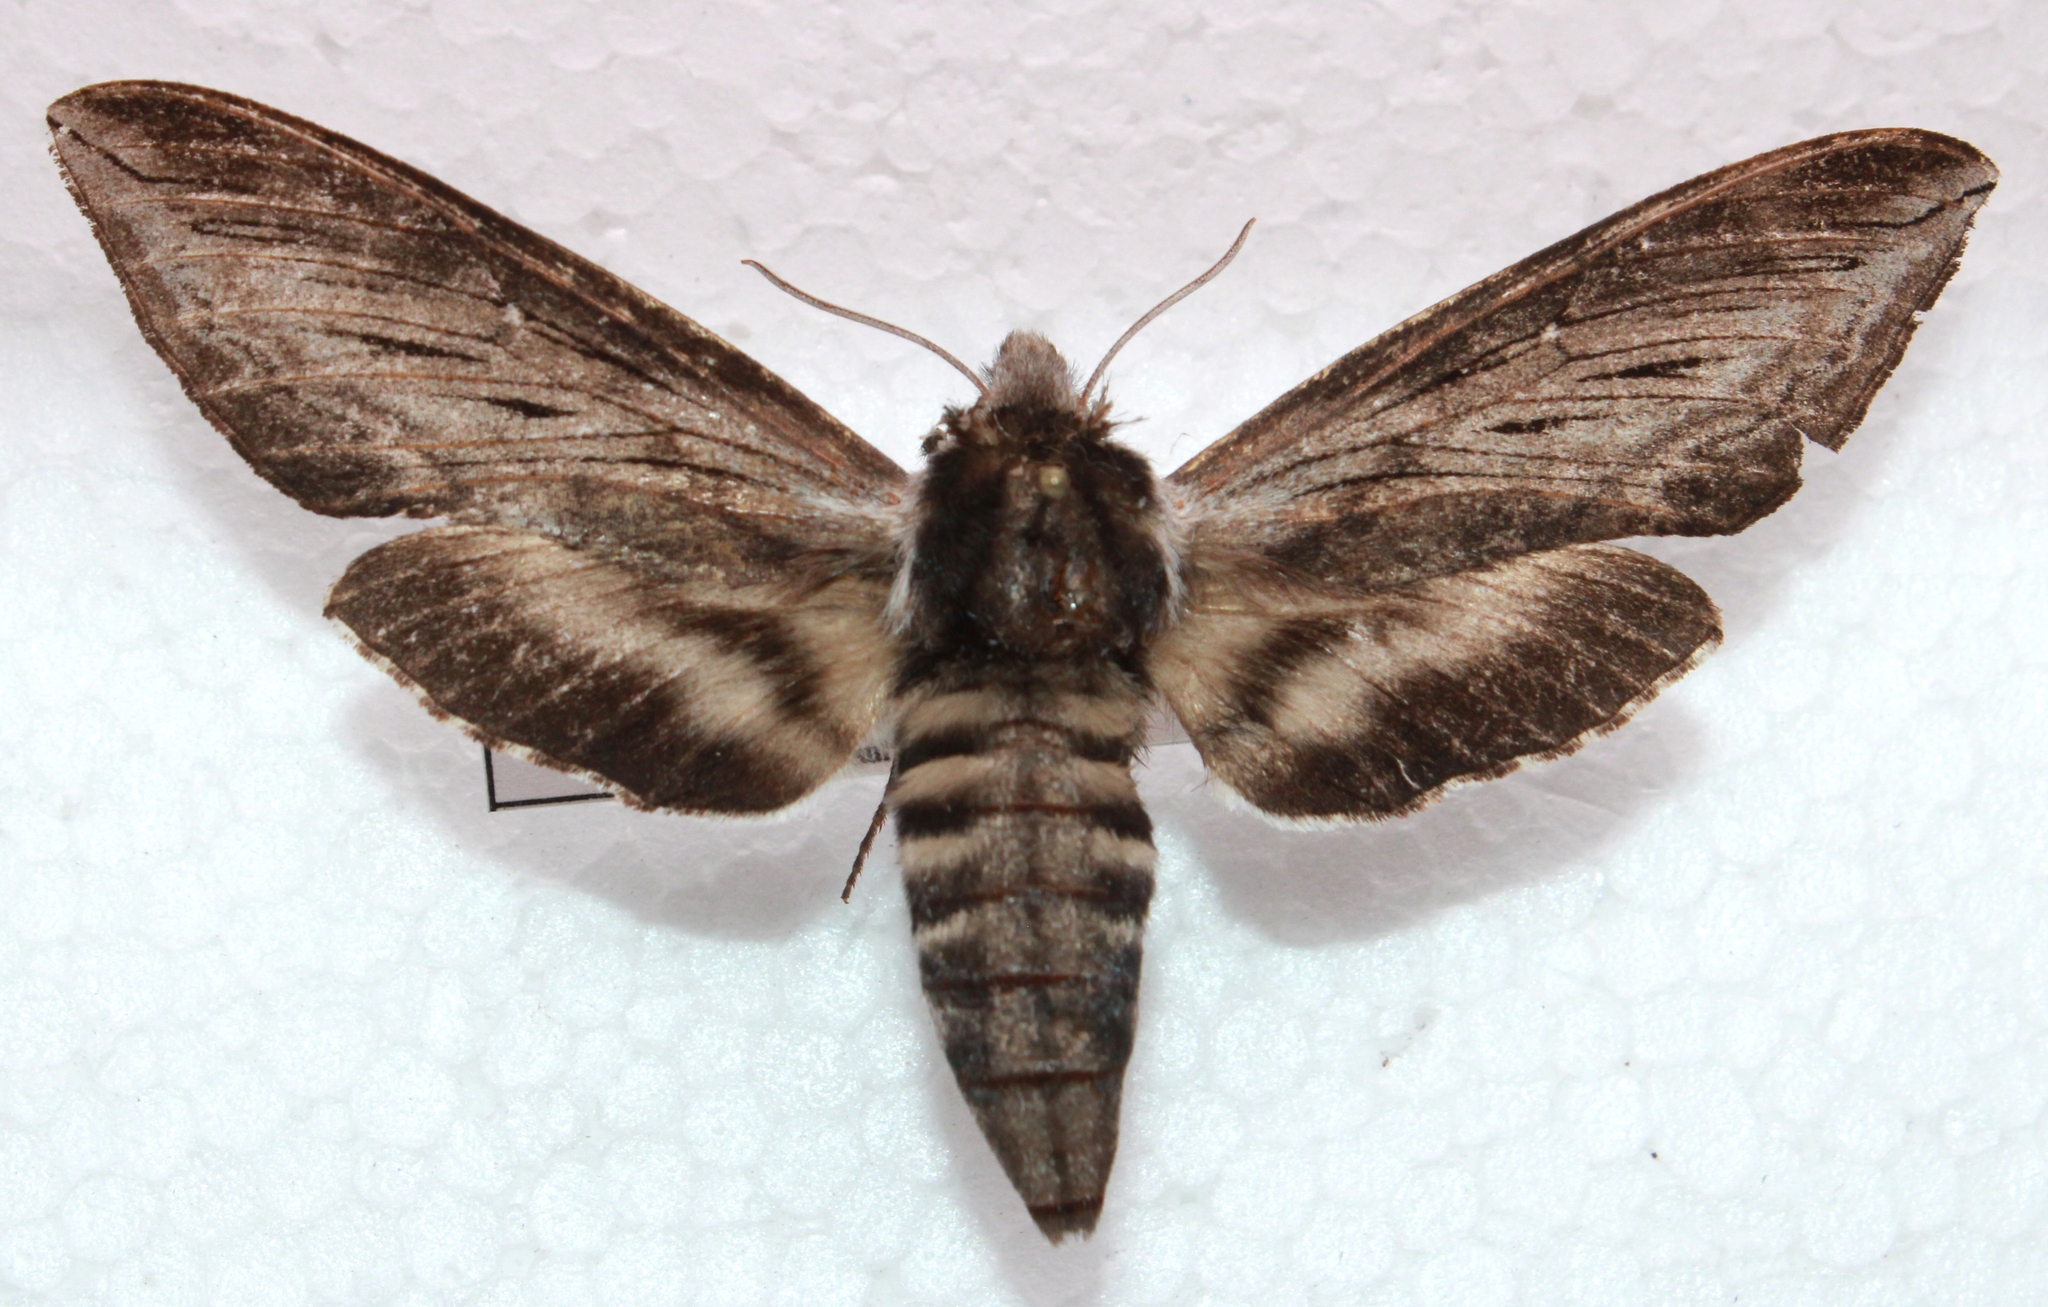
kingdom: Animalia
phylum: Arthropoda
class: Insecta
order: Lepidoptera
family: Sphingidae
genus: Sphinx
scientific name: Sphinx poecila
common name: Northern apple sphinx
